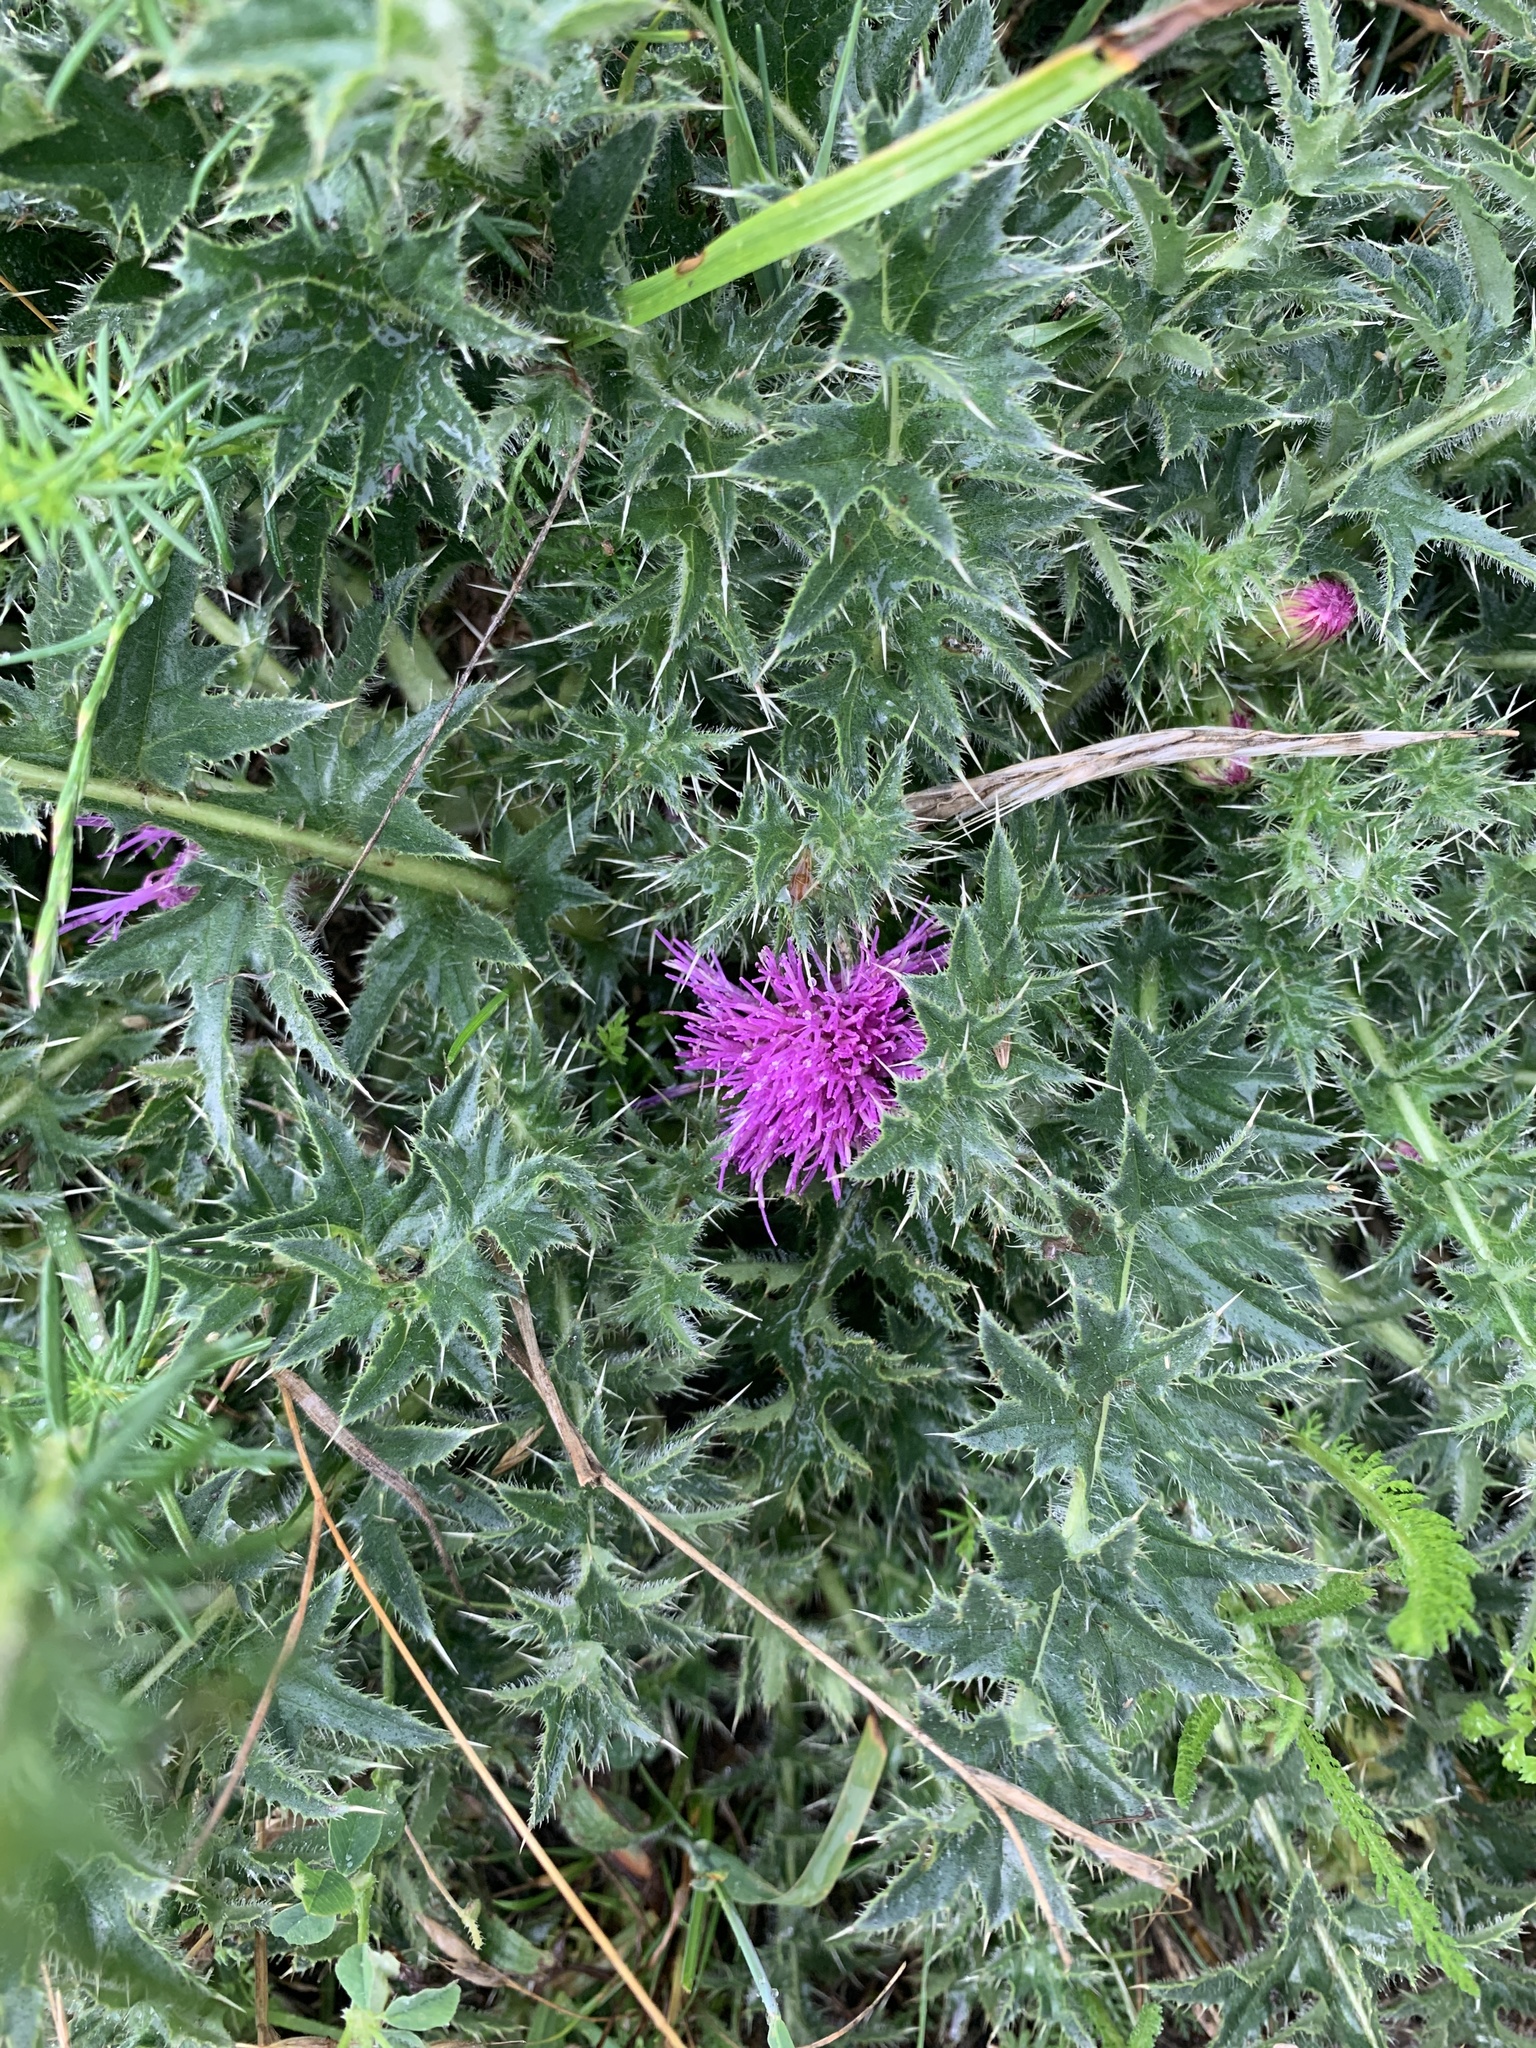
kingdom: Plantae
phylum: Tracheophyta
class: Magnoliopsida
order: Asterales
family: Asteraceae
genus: Cirsium
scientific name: Cirsium acaulon
